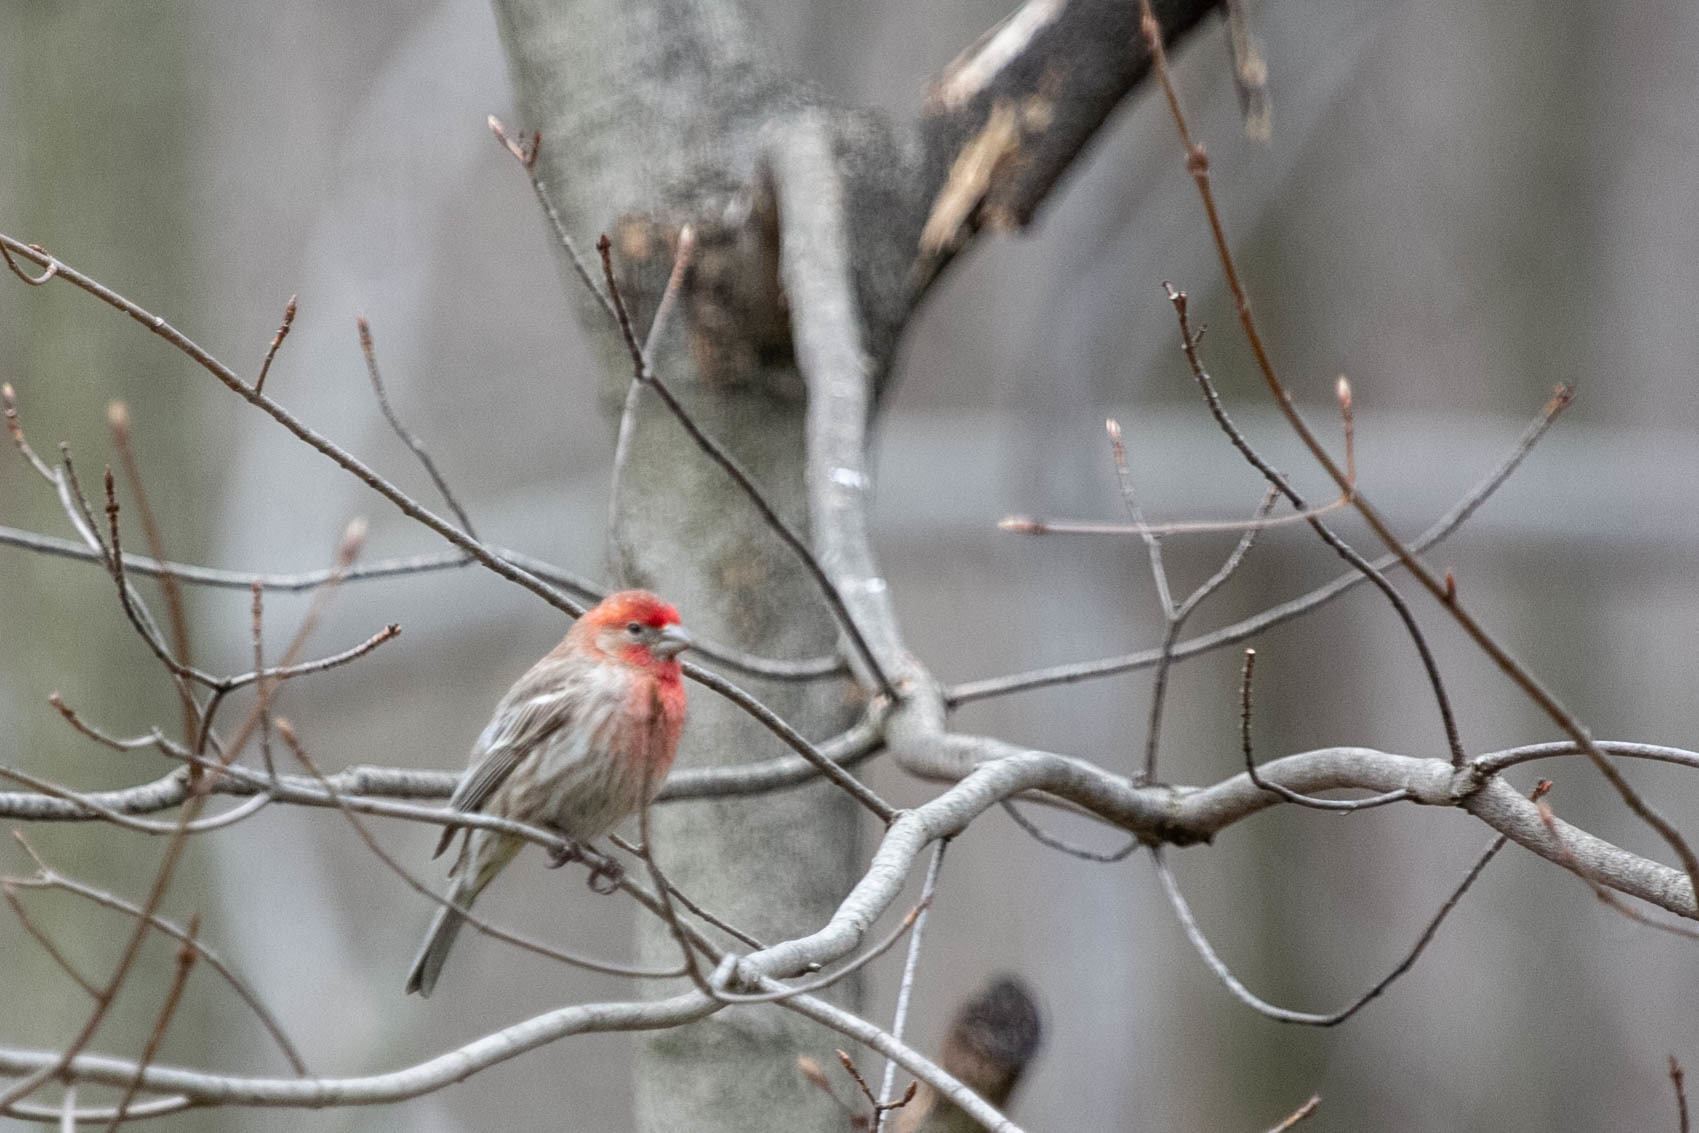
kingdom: Animalia
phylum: Chordata
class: Aves
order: Passeriformes
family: Fringillidae
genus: Haemorhous
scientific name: Haemorhous mexicanus
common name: House finch
